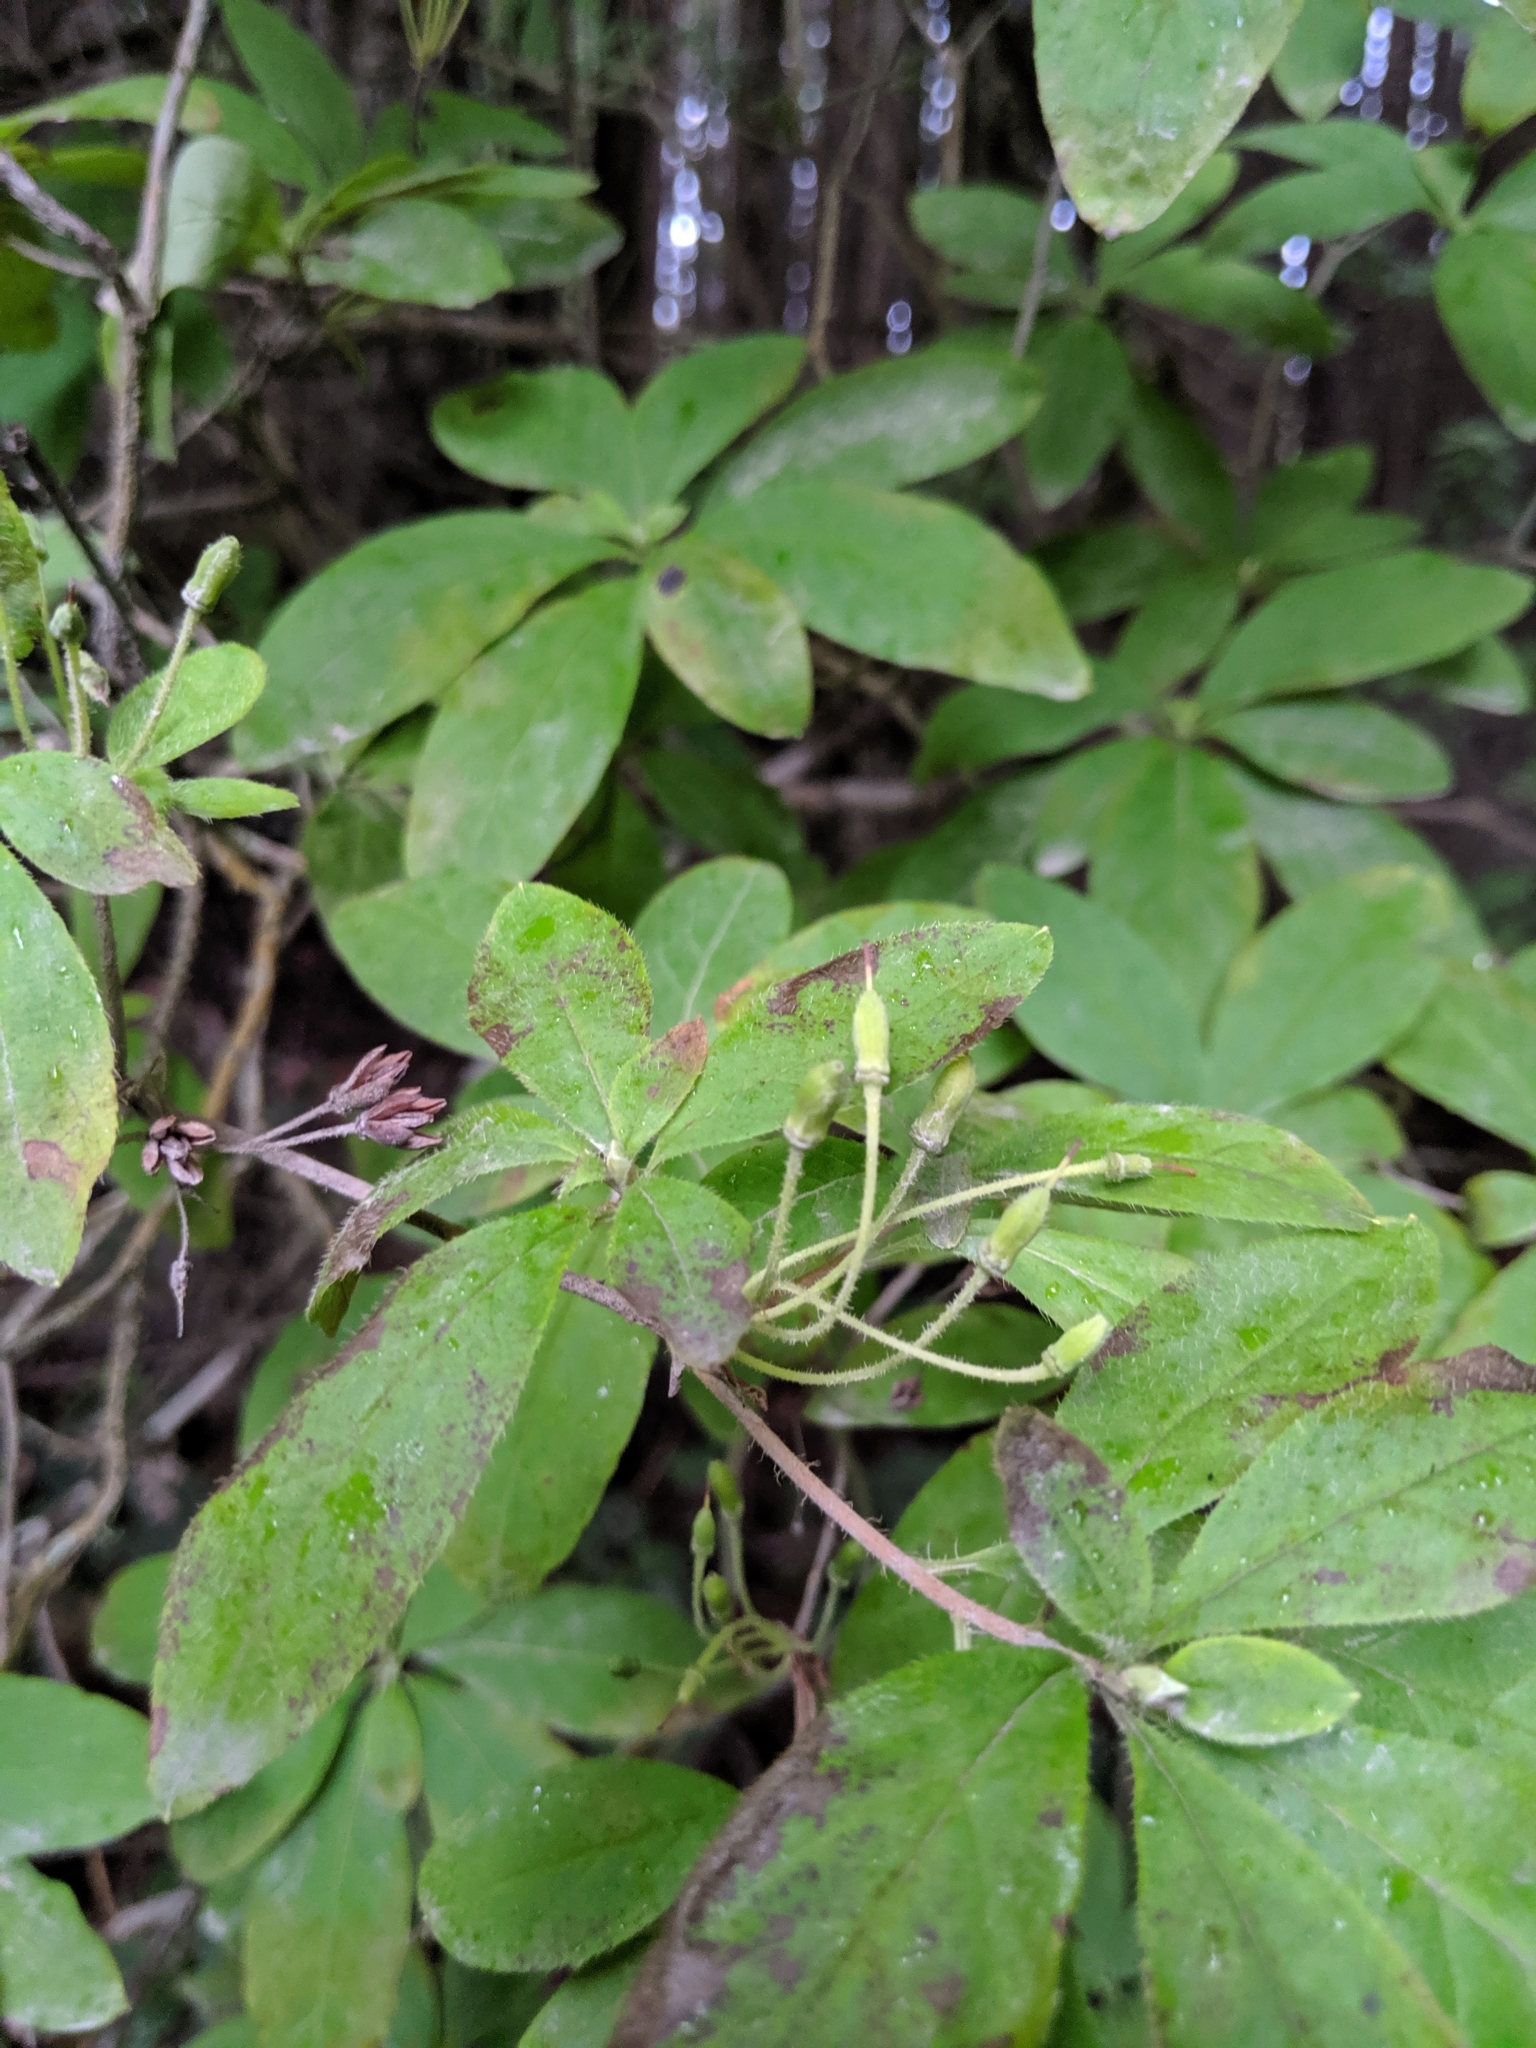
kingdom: Plantae
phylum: Tracheophyta
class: Magnoliopsida
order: Ericales
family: Ericaceae
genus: Rhododendron
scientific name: Rhododendron menziesii
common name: Pacific menziesia
